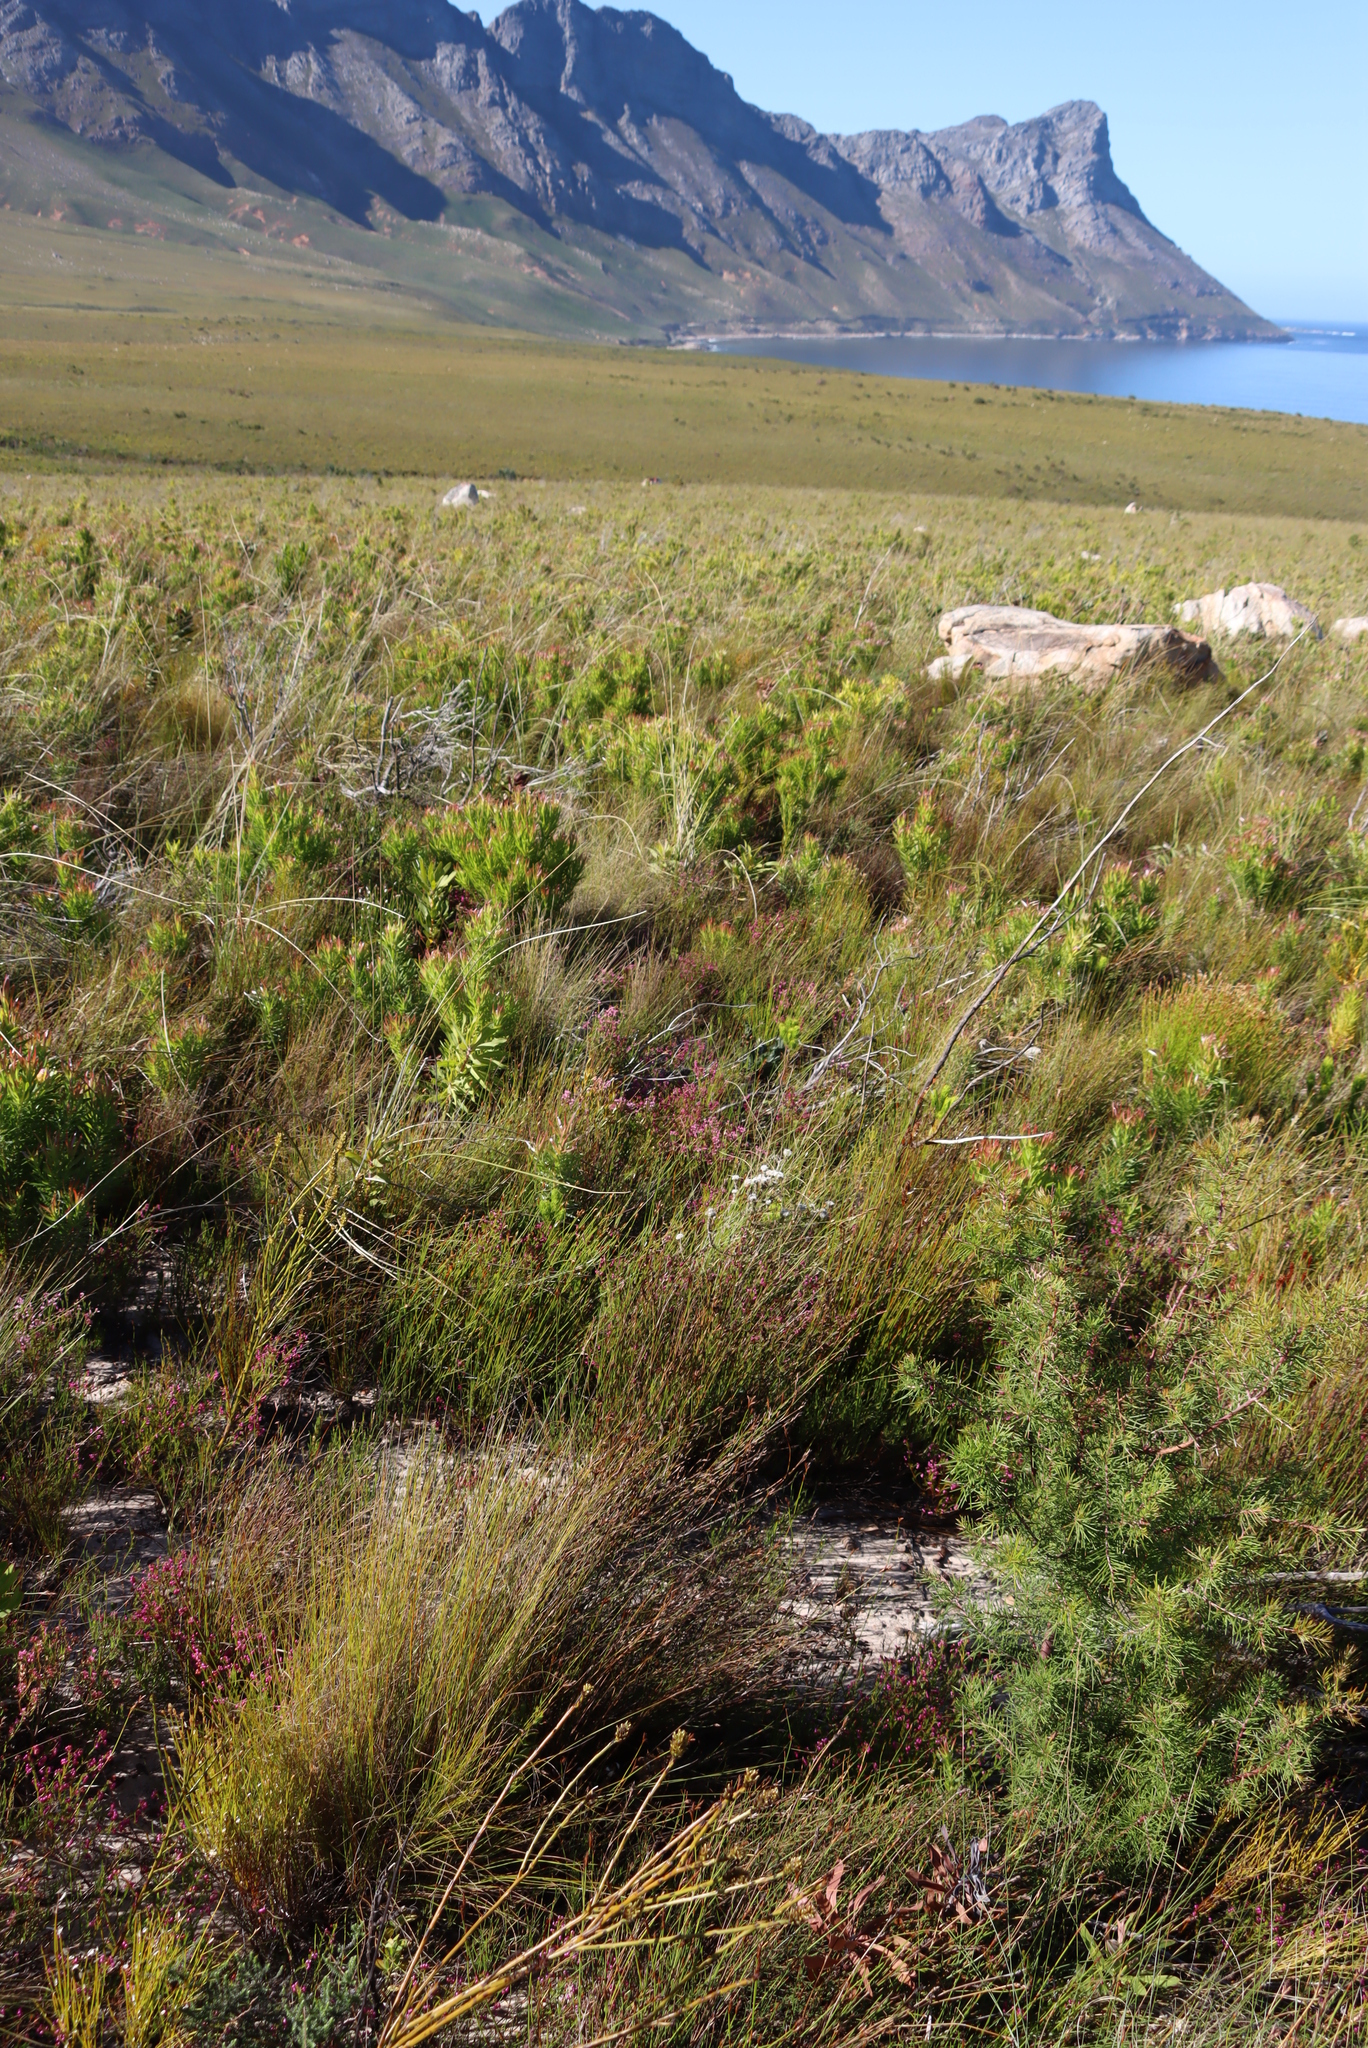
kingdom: Plantae
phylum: Tracheophyta
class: Magnoliopsida
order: Ericales
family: Ericaceae
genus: Erica
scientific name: Erica multumbellifera
